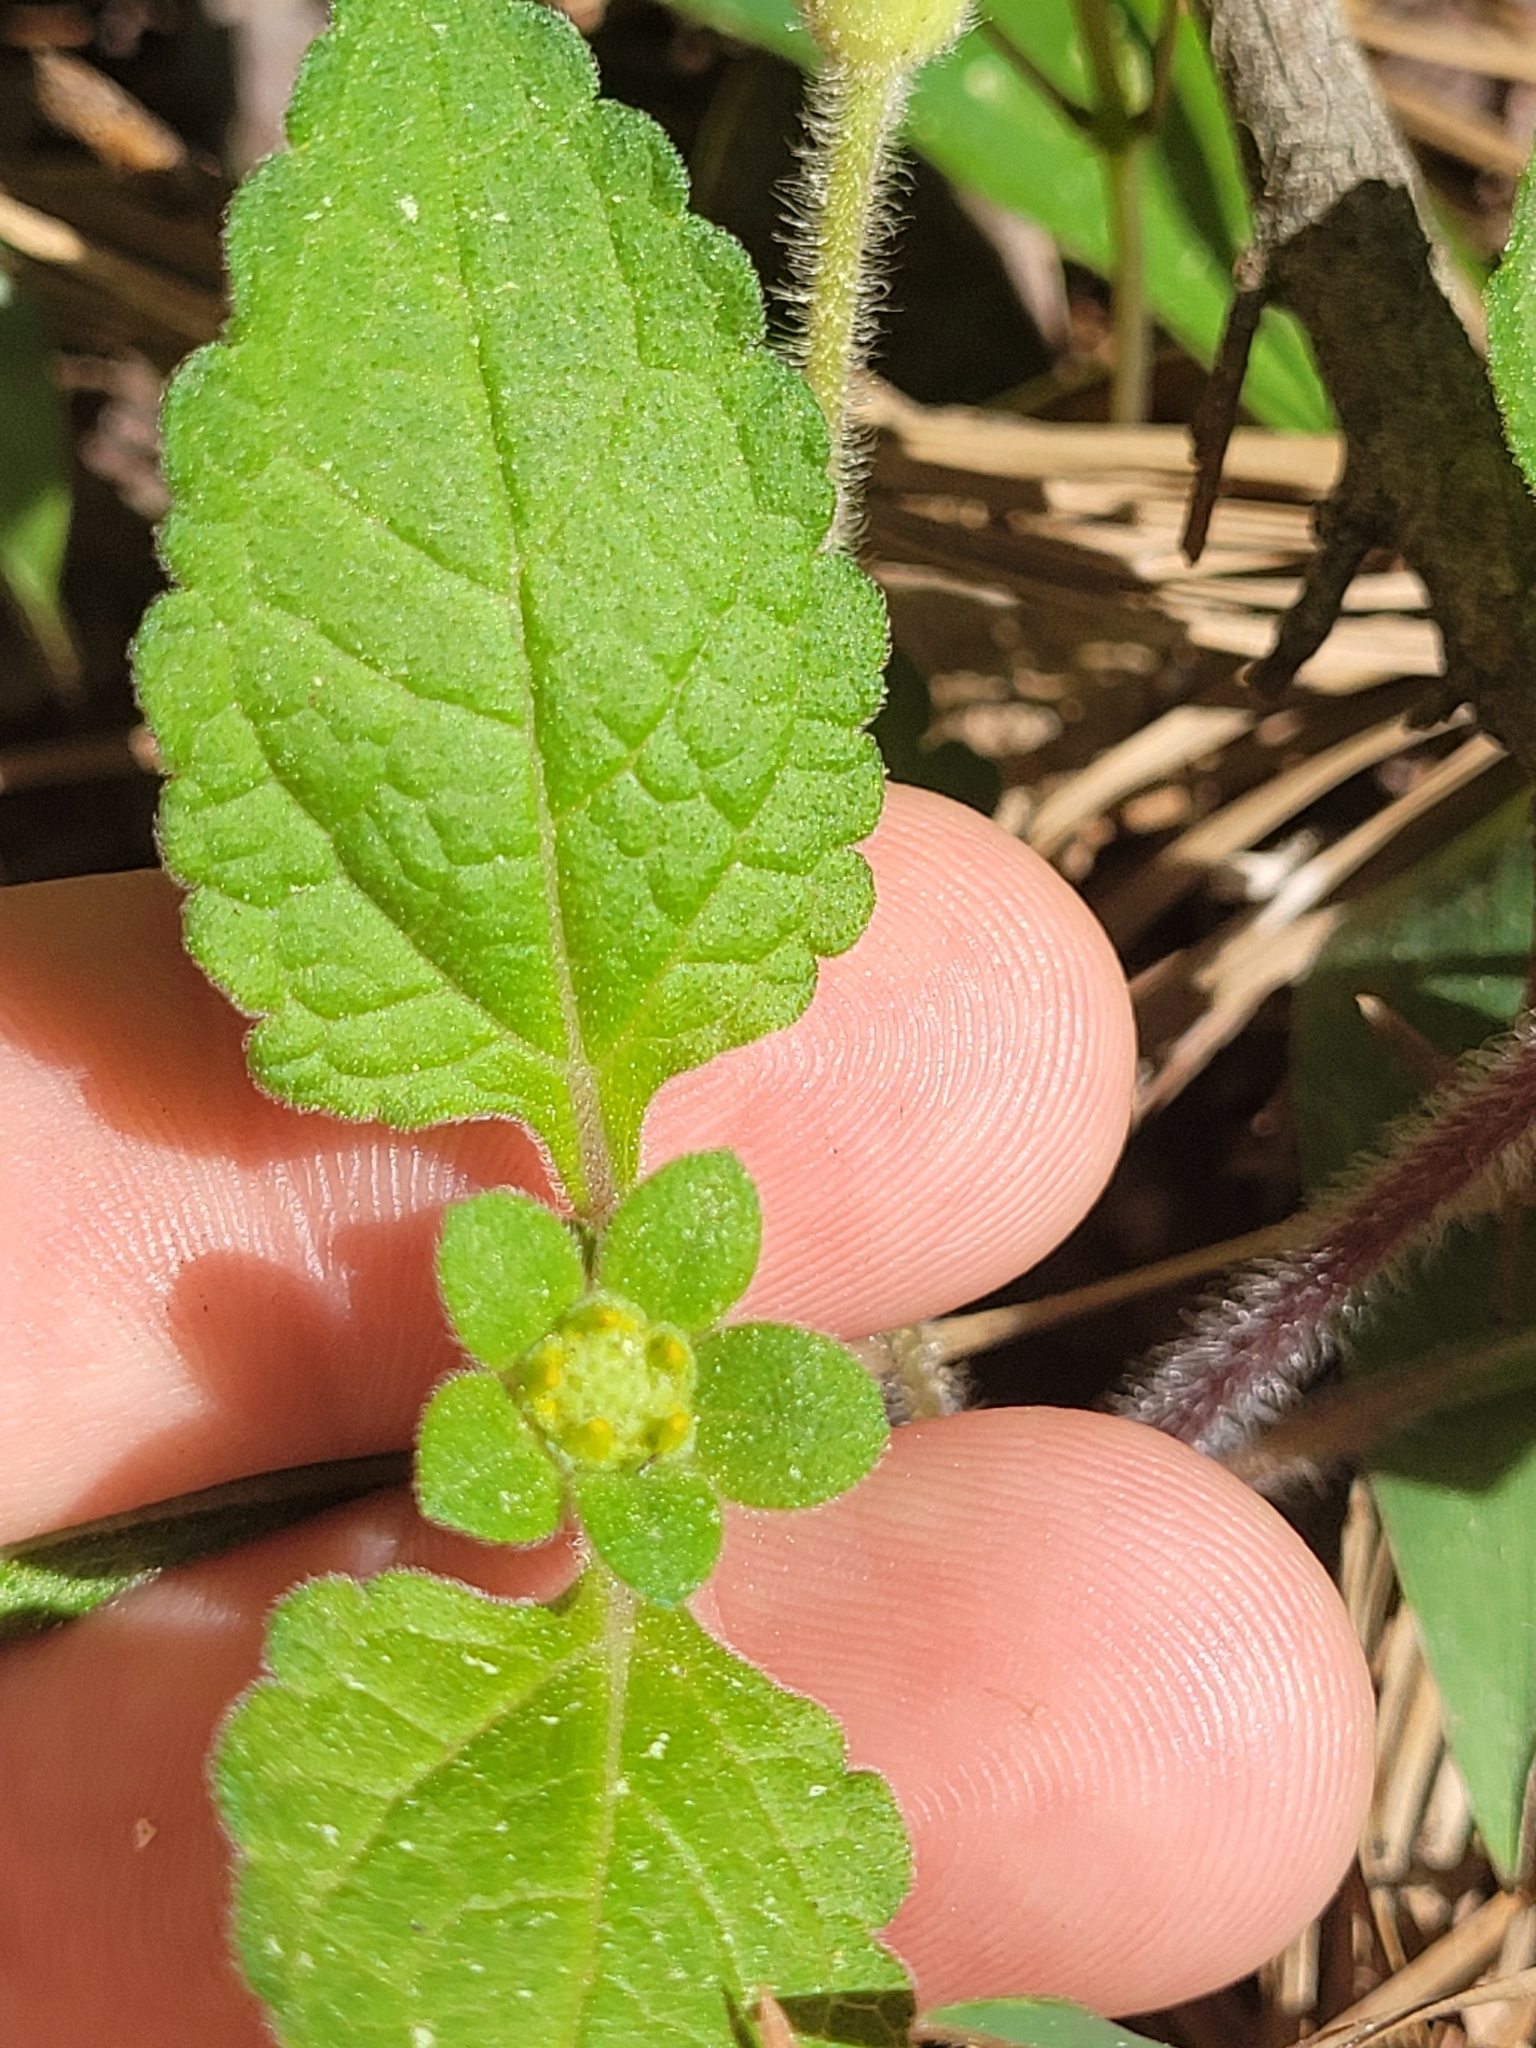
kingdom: Plantae
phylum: Tracheophyta
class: Magnoliopsida
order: Asterales
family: Asteraceae
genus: Chrysogonum
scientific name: Chrysogonum virginianum
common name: Golden-knee
